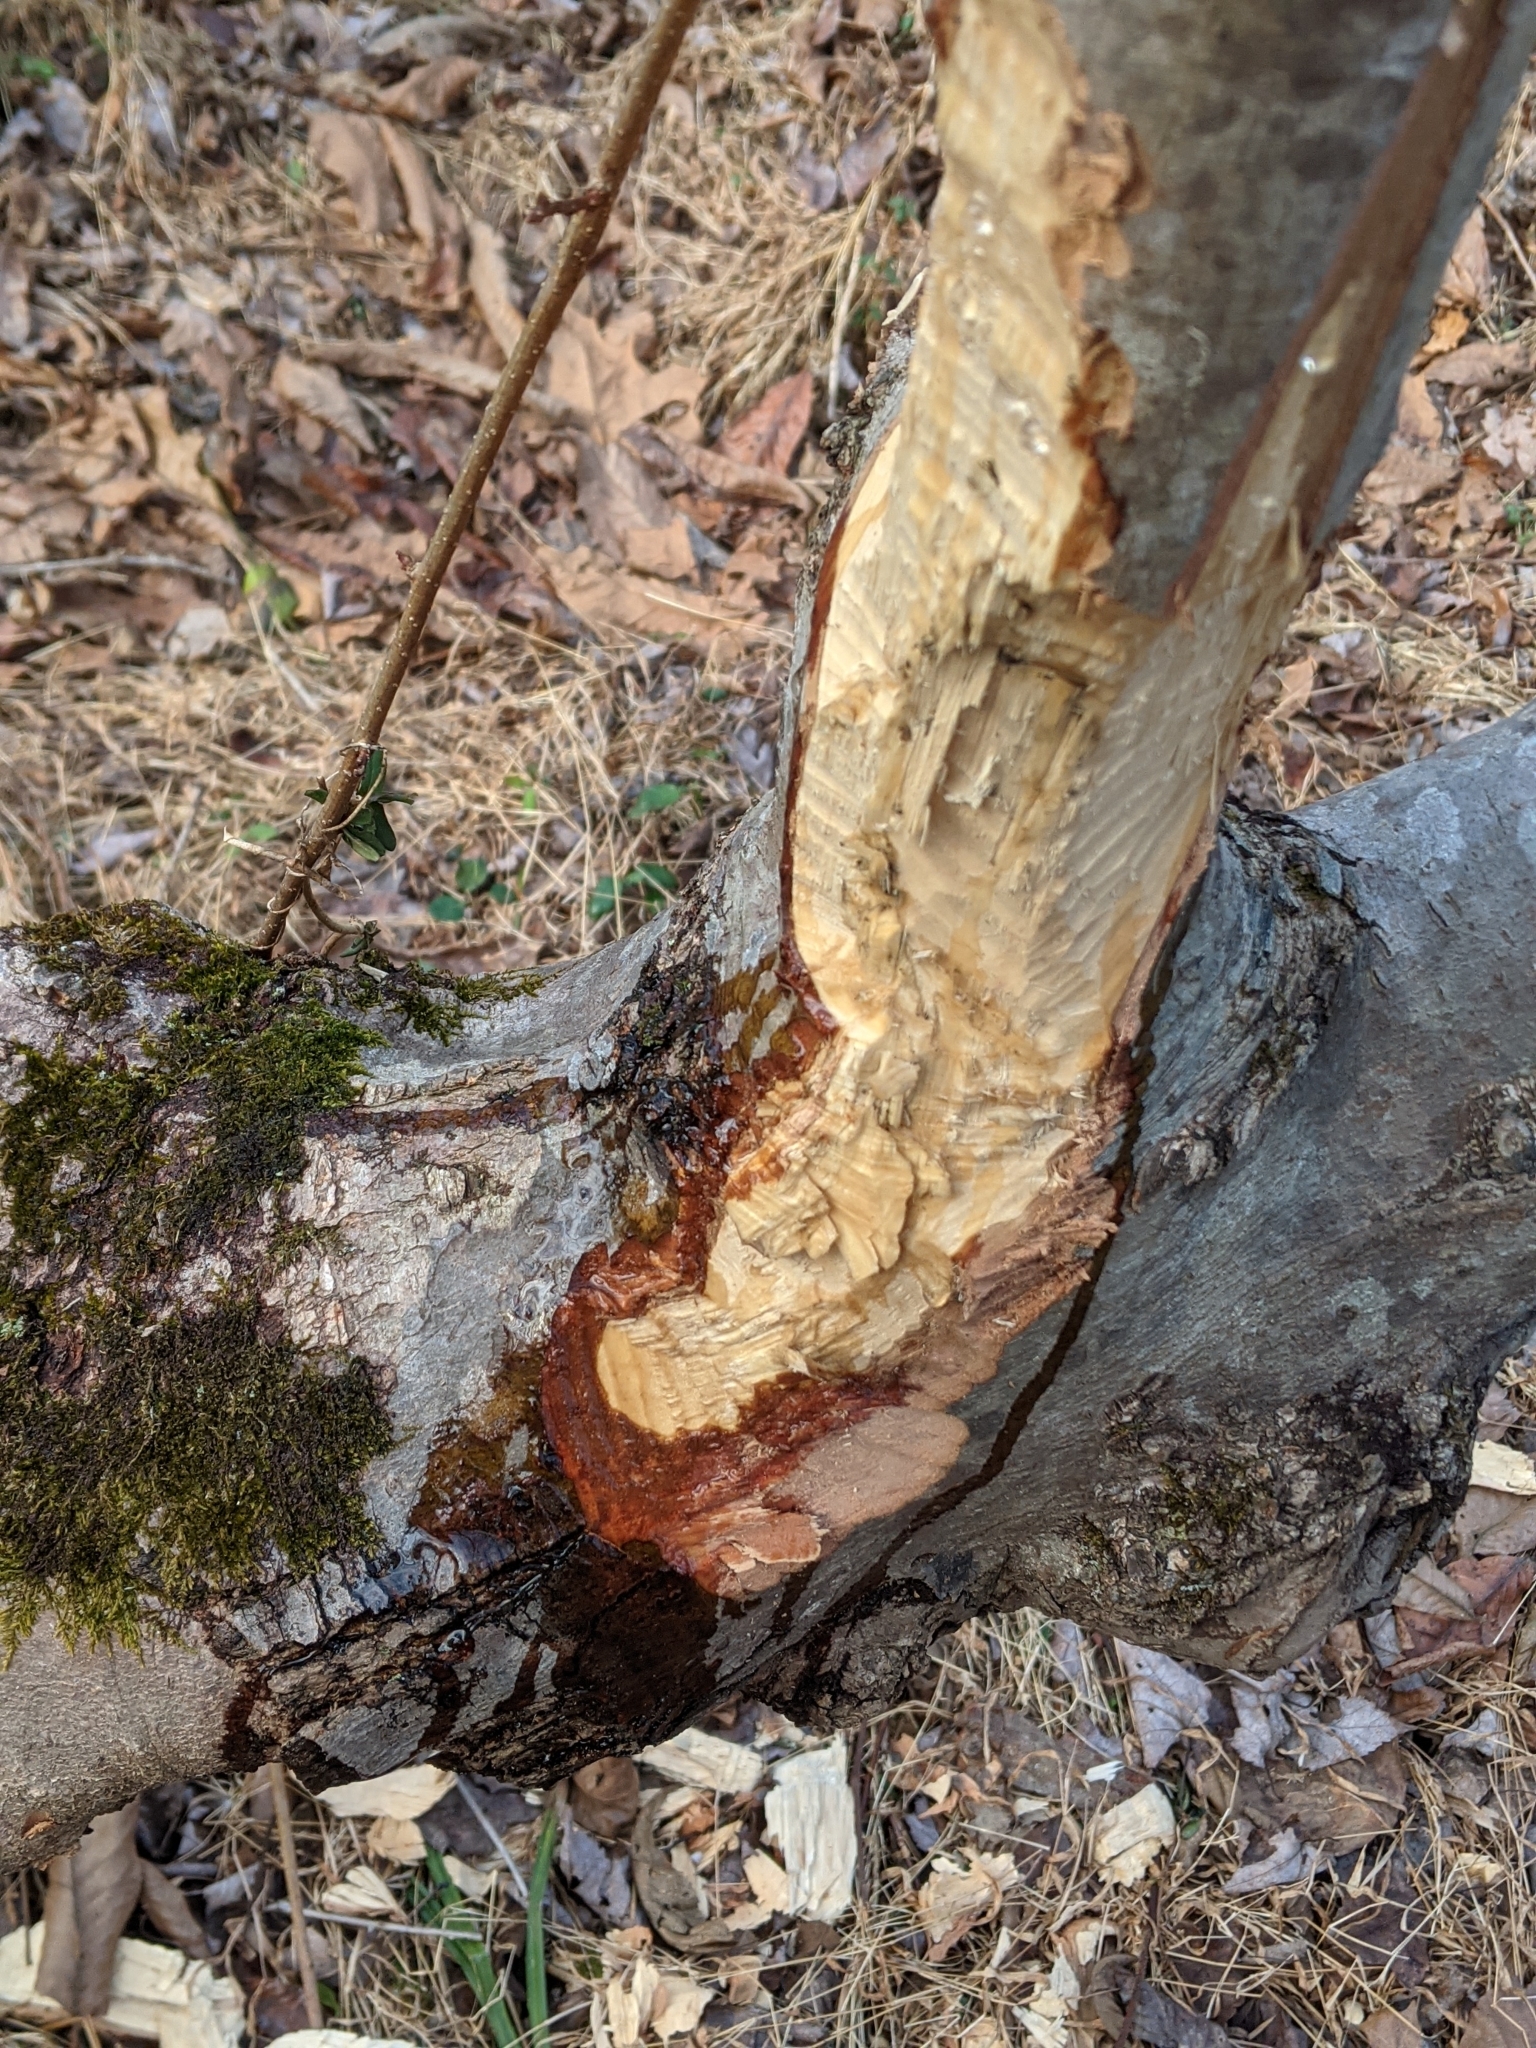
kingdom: Animalia
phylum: Chordata
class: Mammalia
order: Rodentia
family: Castoridae
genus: Castor
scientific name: Castor canadensis
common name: American beaver
